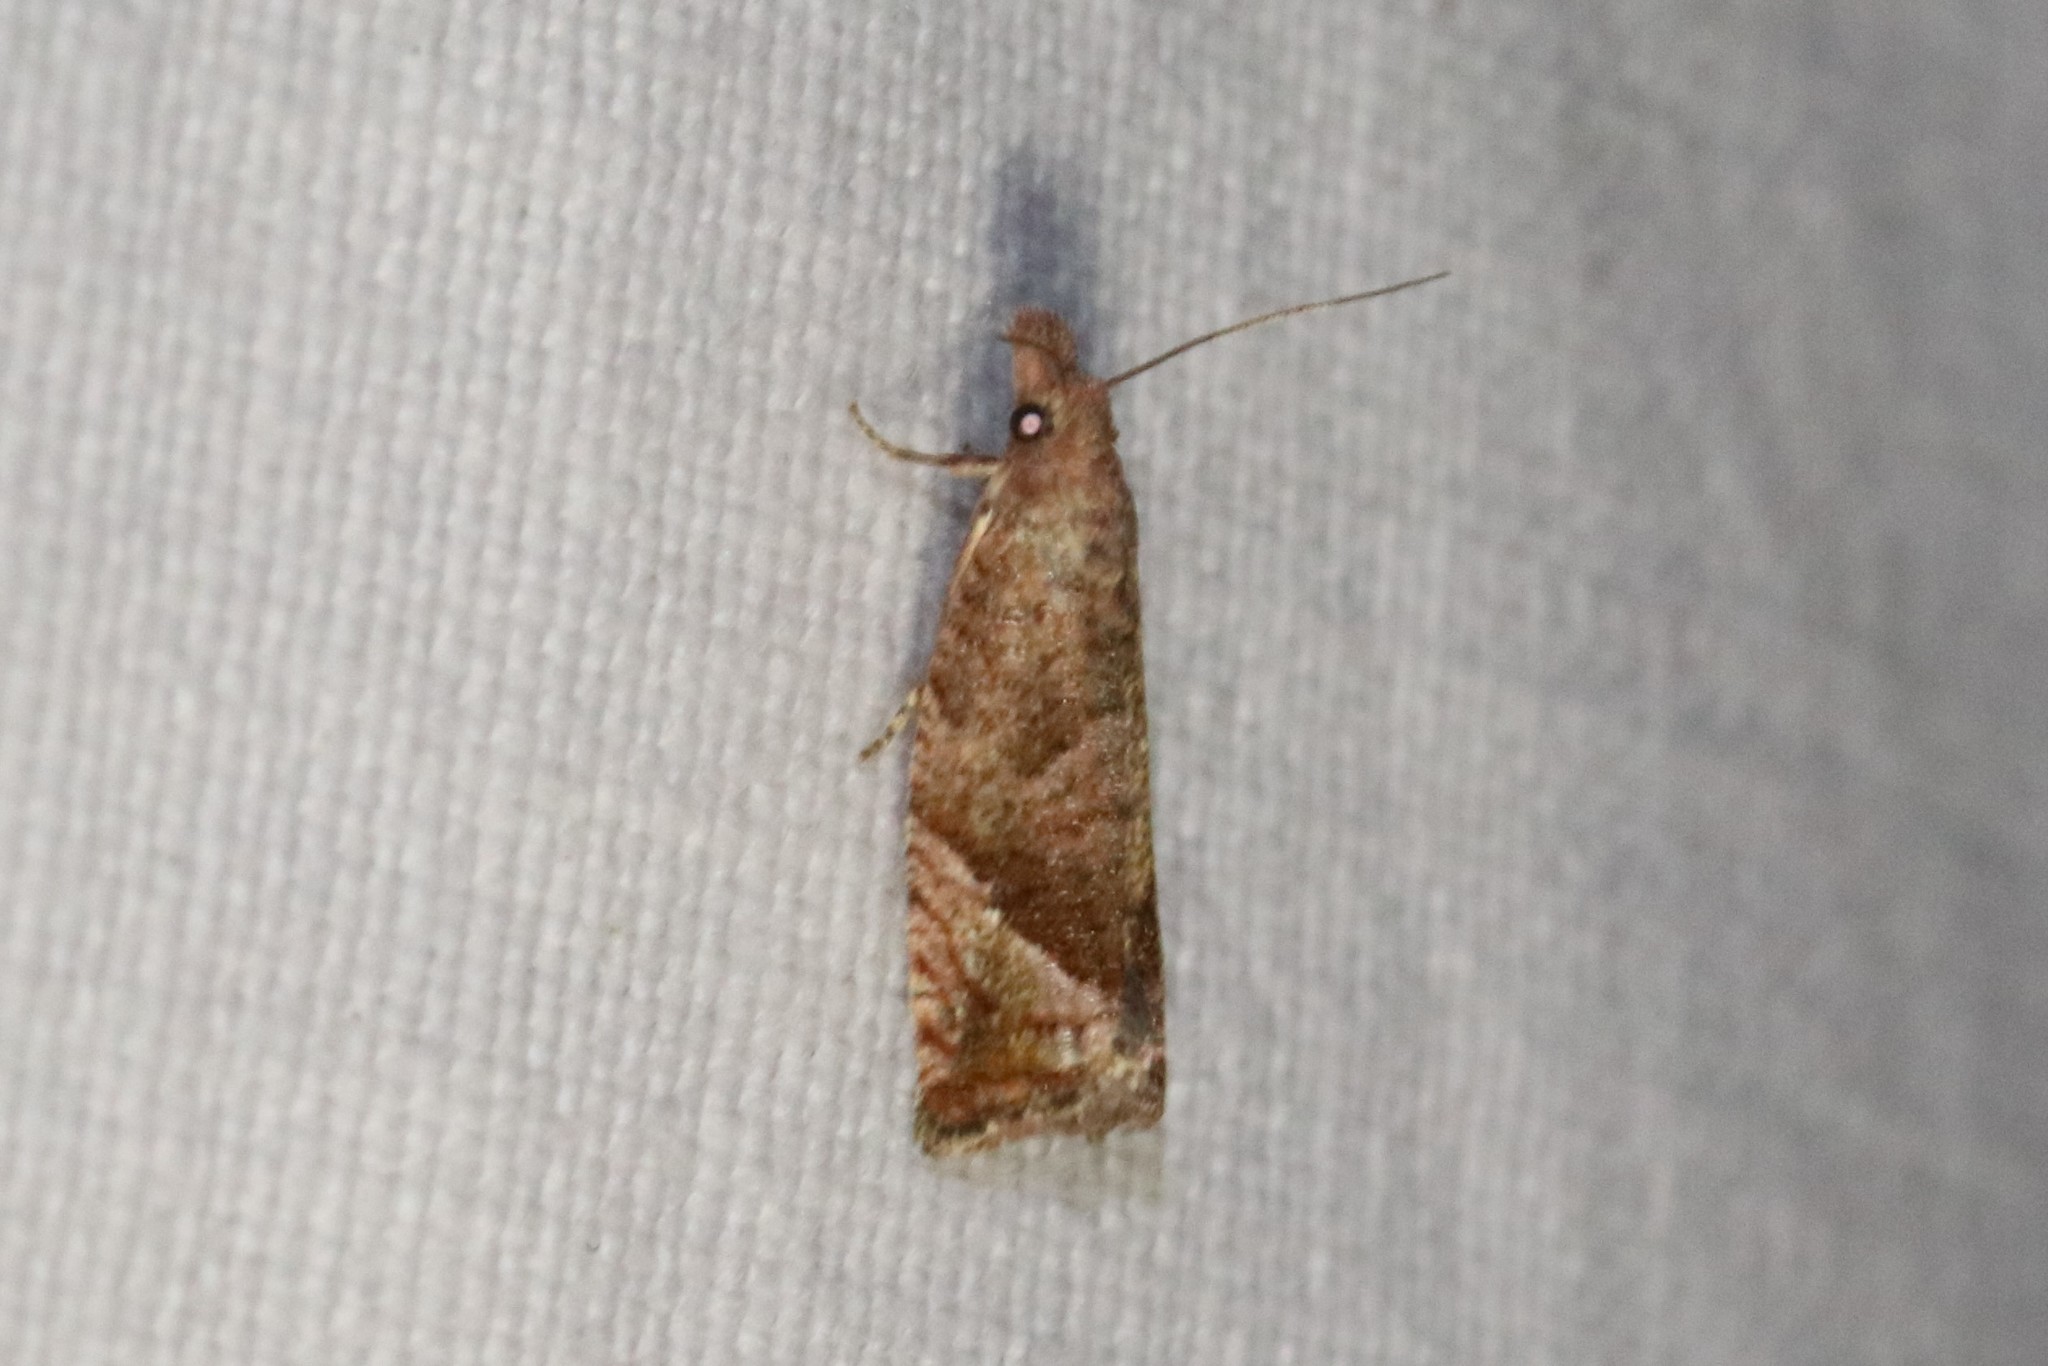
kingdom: Animalia
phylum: Arthropoda
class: Insecta
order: Lepidoptera
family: Tortricidae
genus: Pelochrista
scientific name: Pelochrista derelicta
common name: Derelict pelochrista moth
